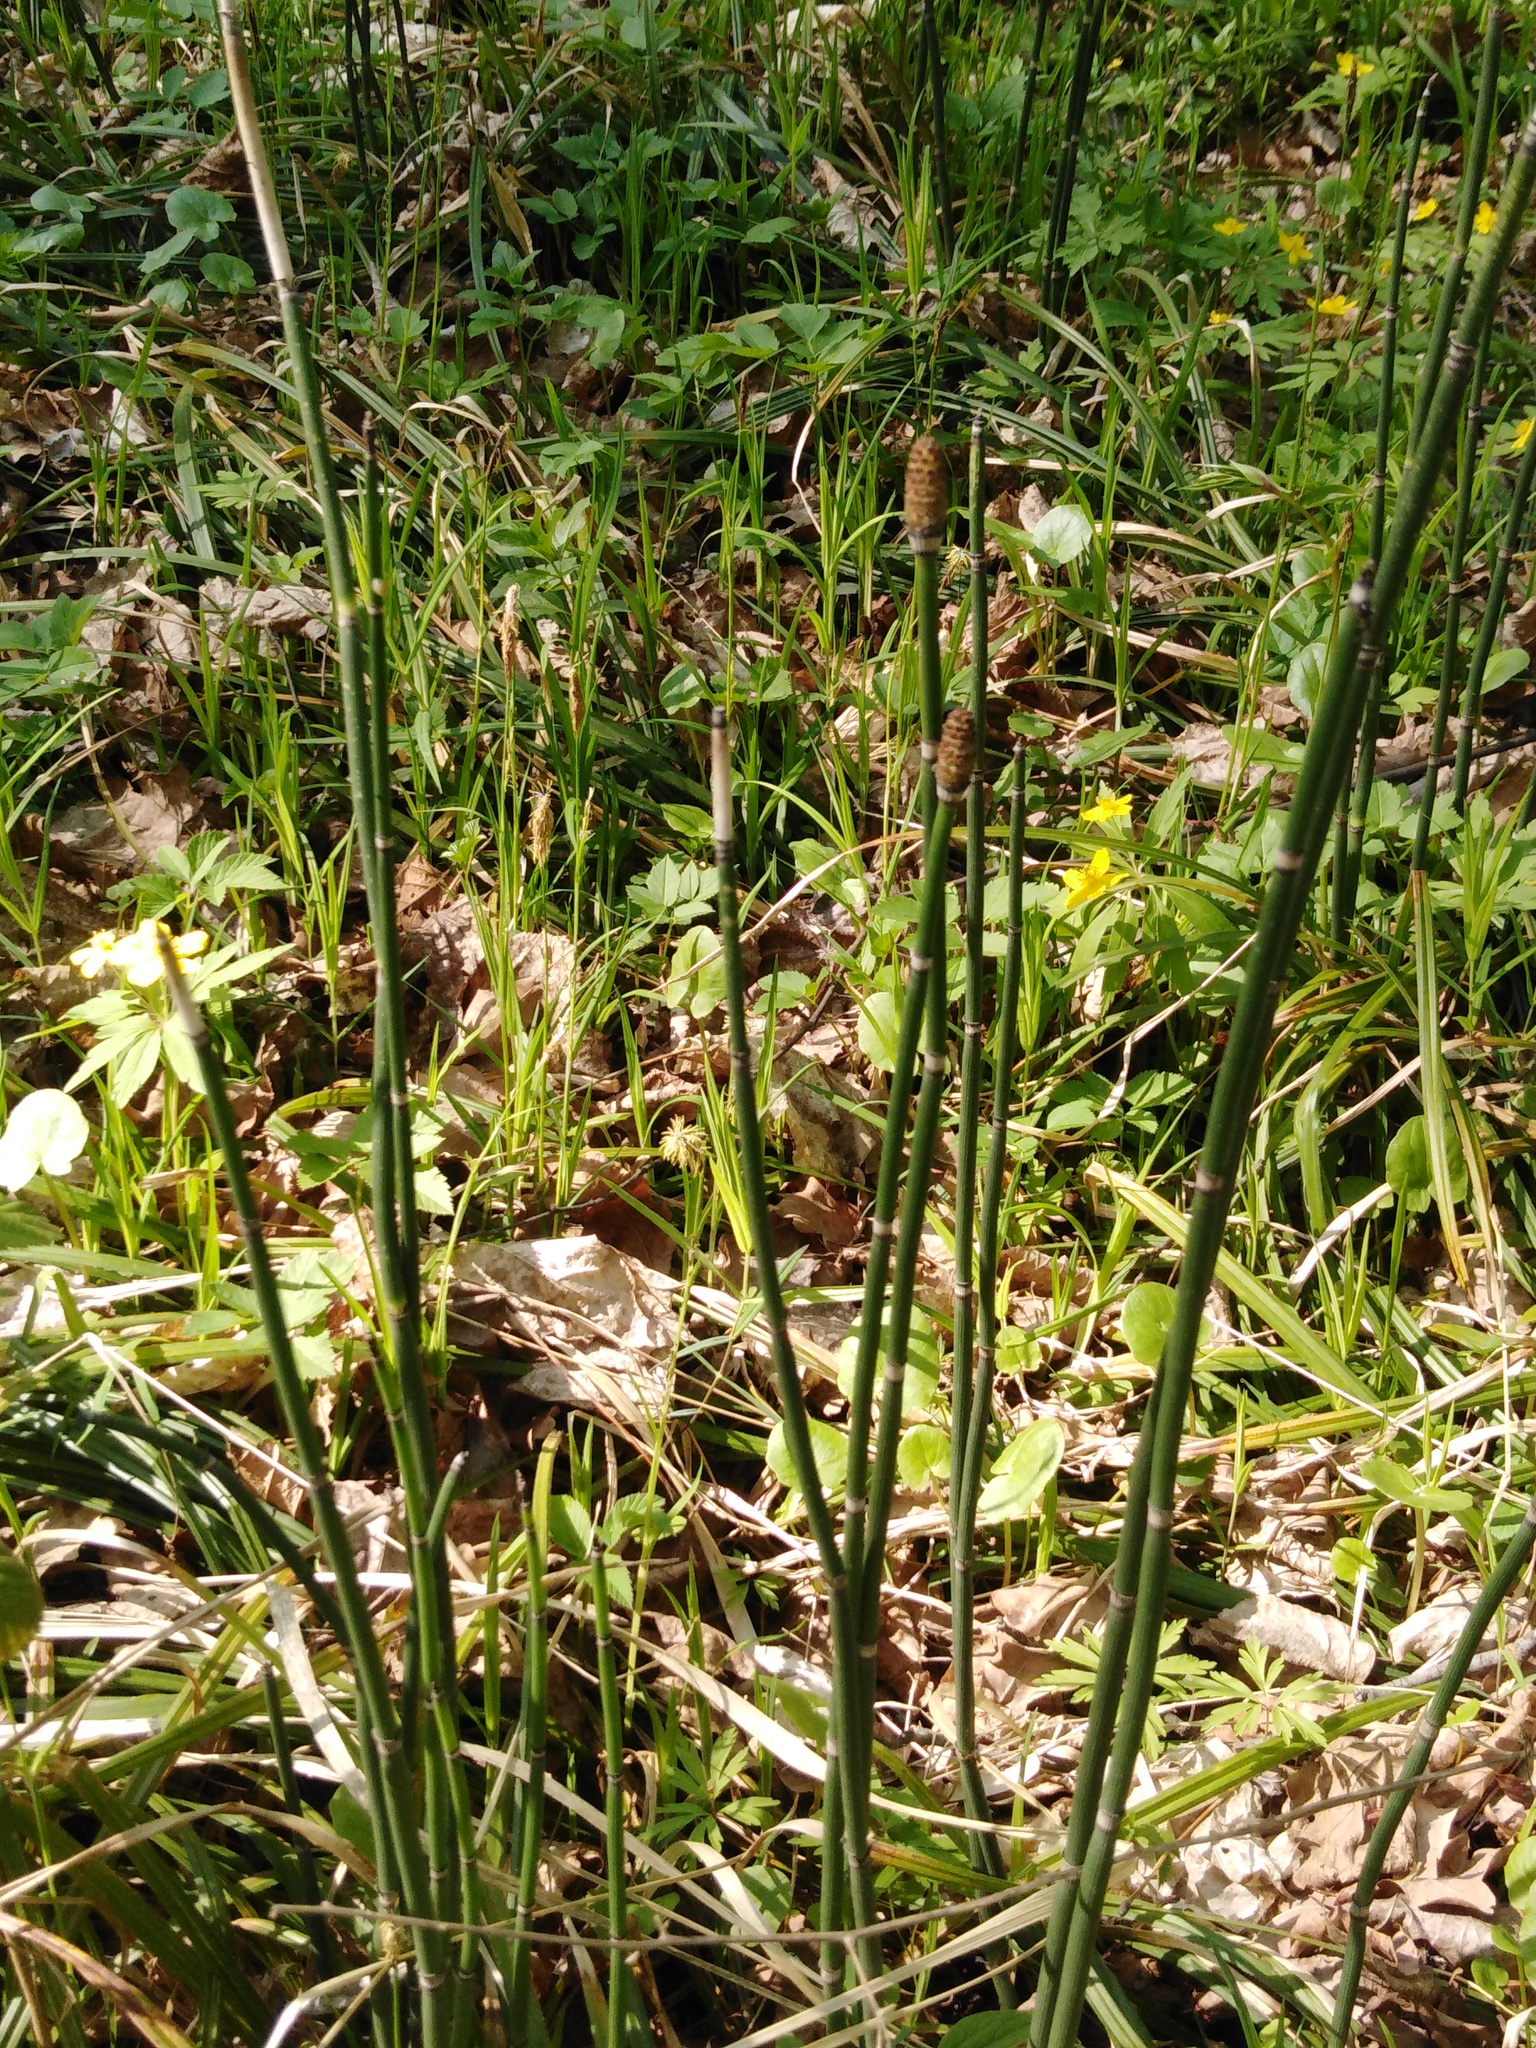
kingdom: Plantae
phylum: Tracheophyta
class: Polypodiopsida
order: Equisetales
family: Equisetaceae
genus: Equisetum
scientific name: Equisetum hyemale
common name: Rough horsetail
